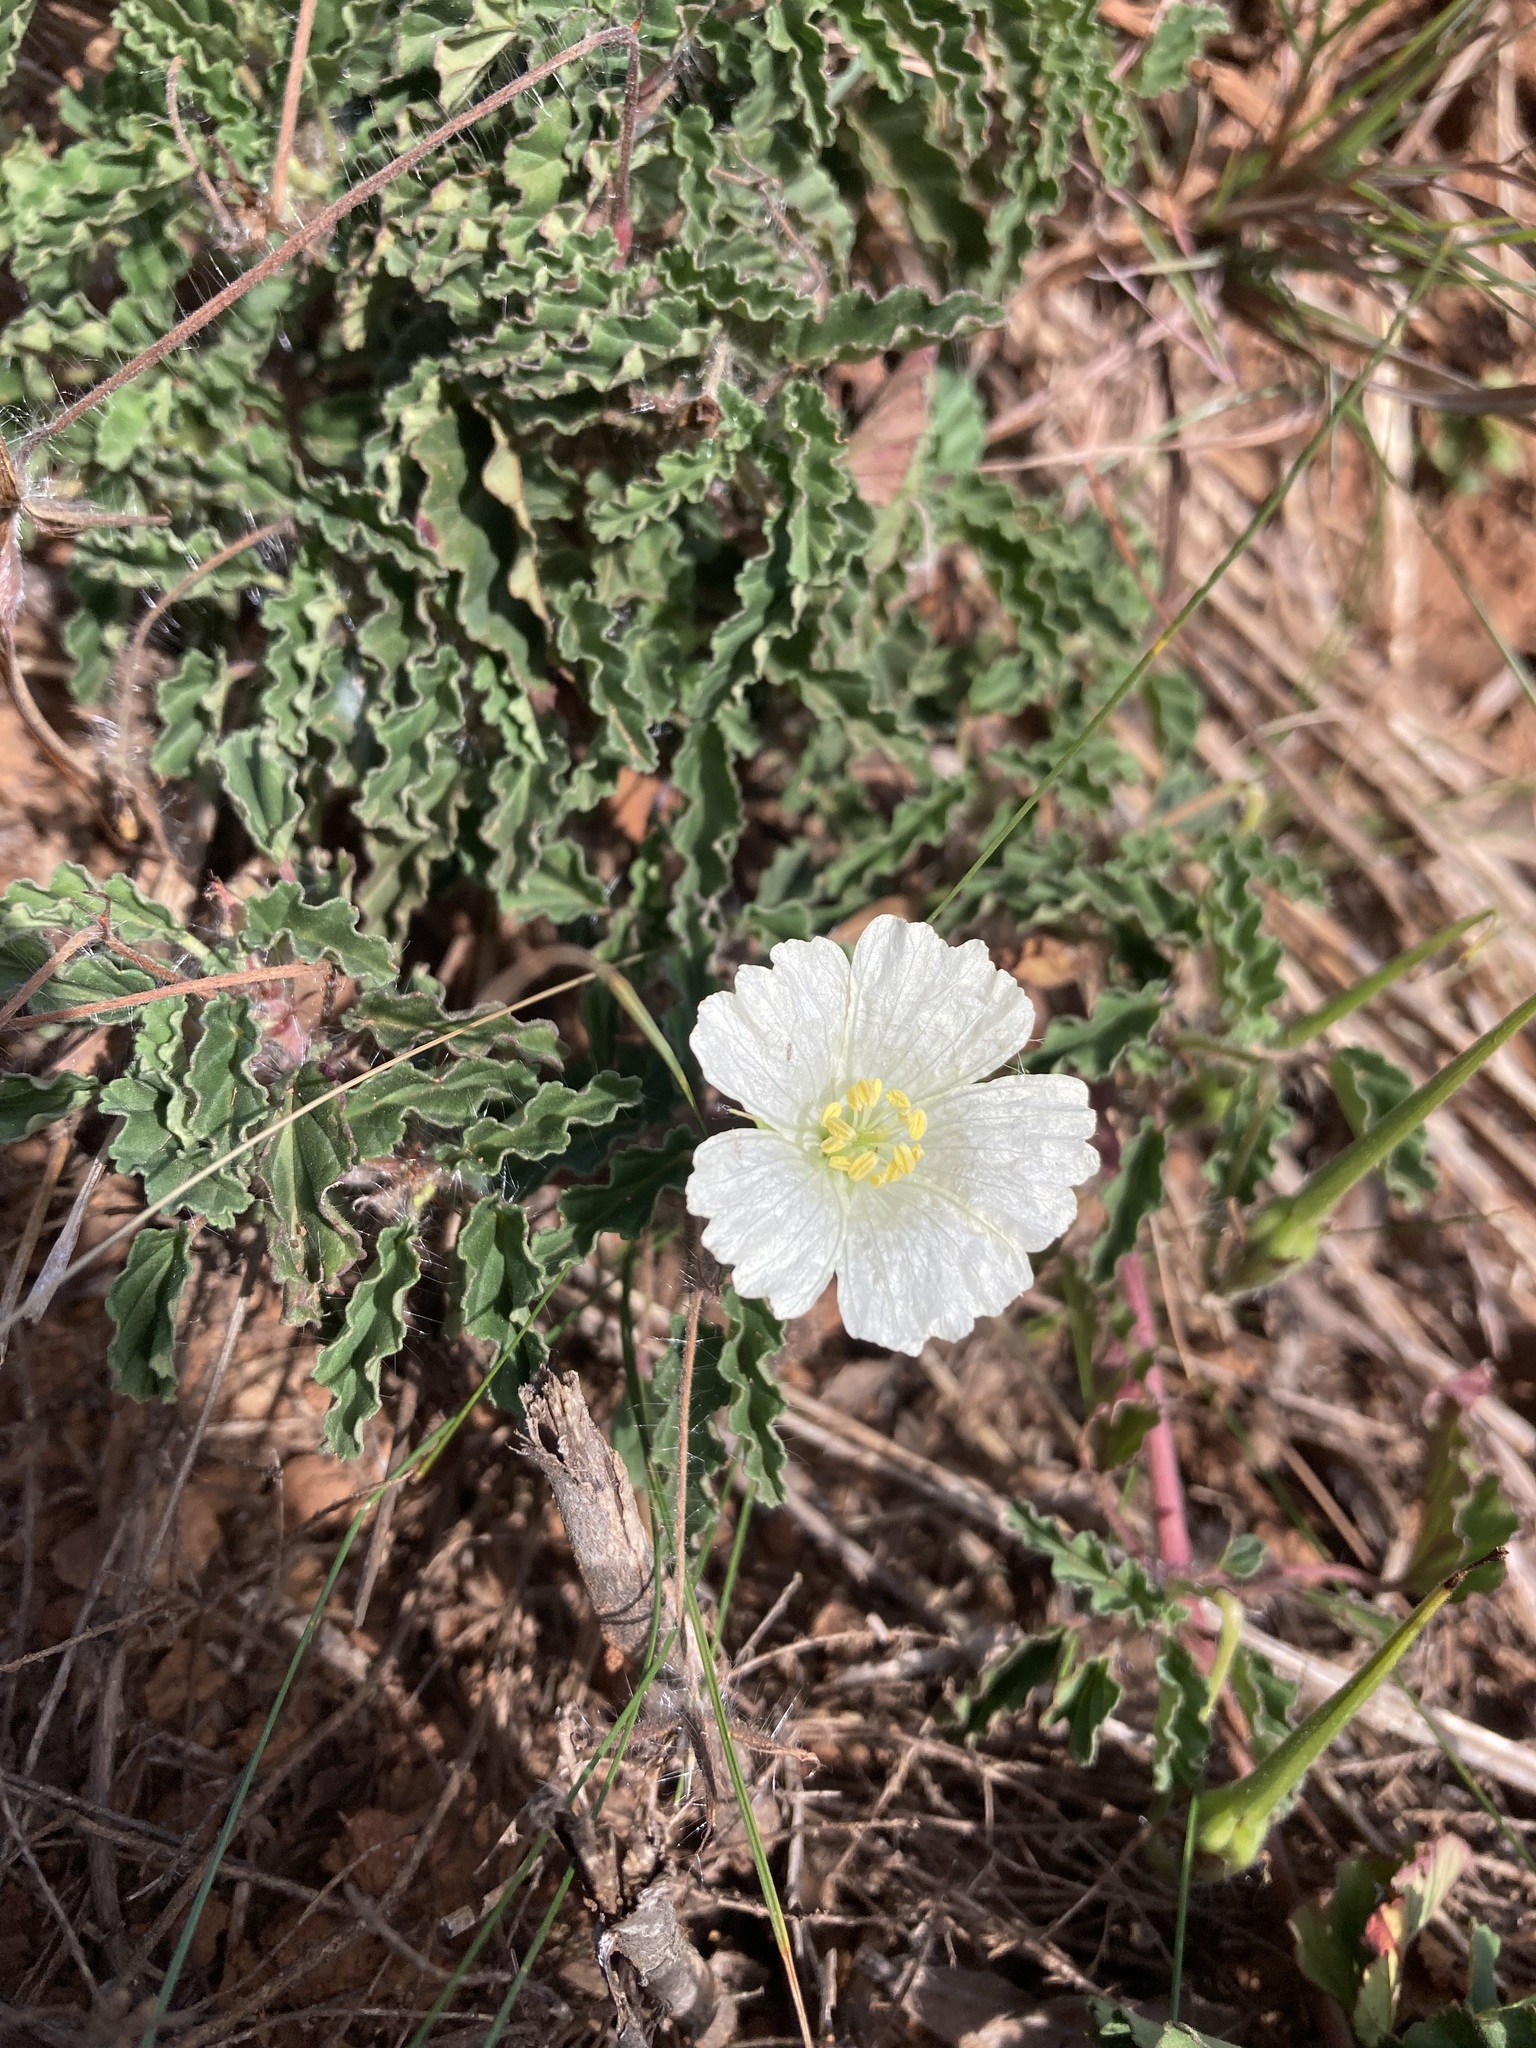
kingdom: Plantae
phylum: Tracheophyta
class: Magnoliopsida
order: Geraniales
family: Geraniaceae
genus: Monsonia
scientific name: Monsonia emarginata
